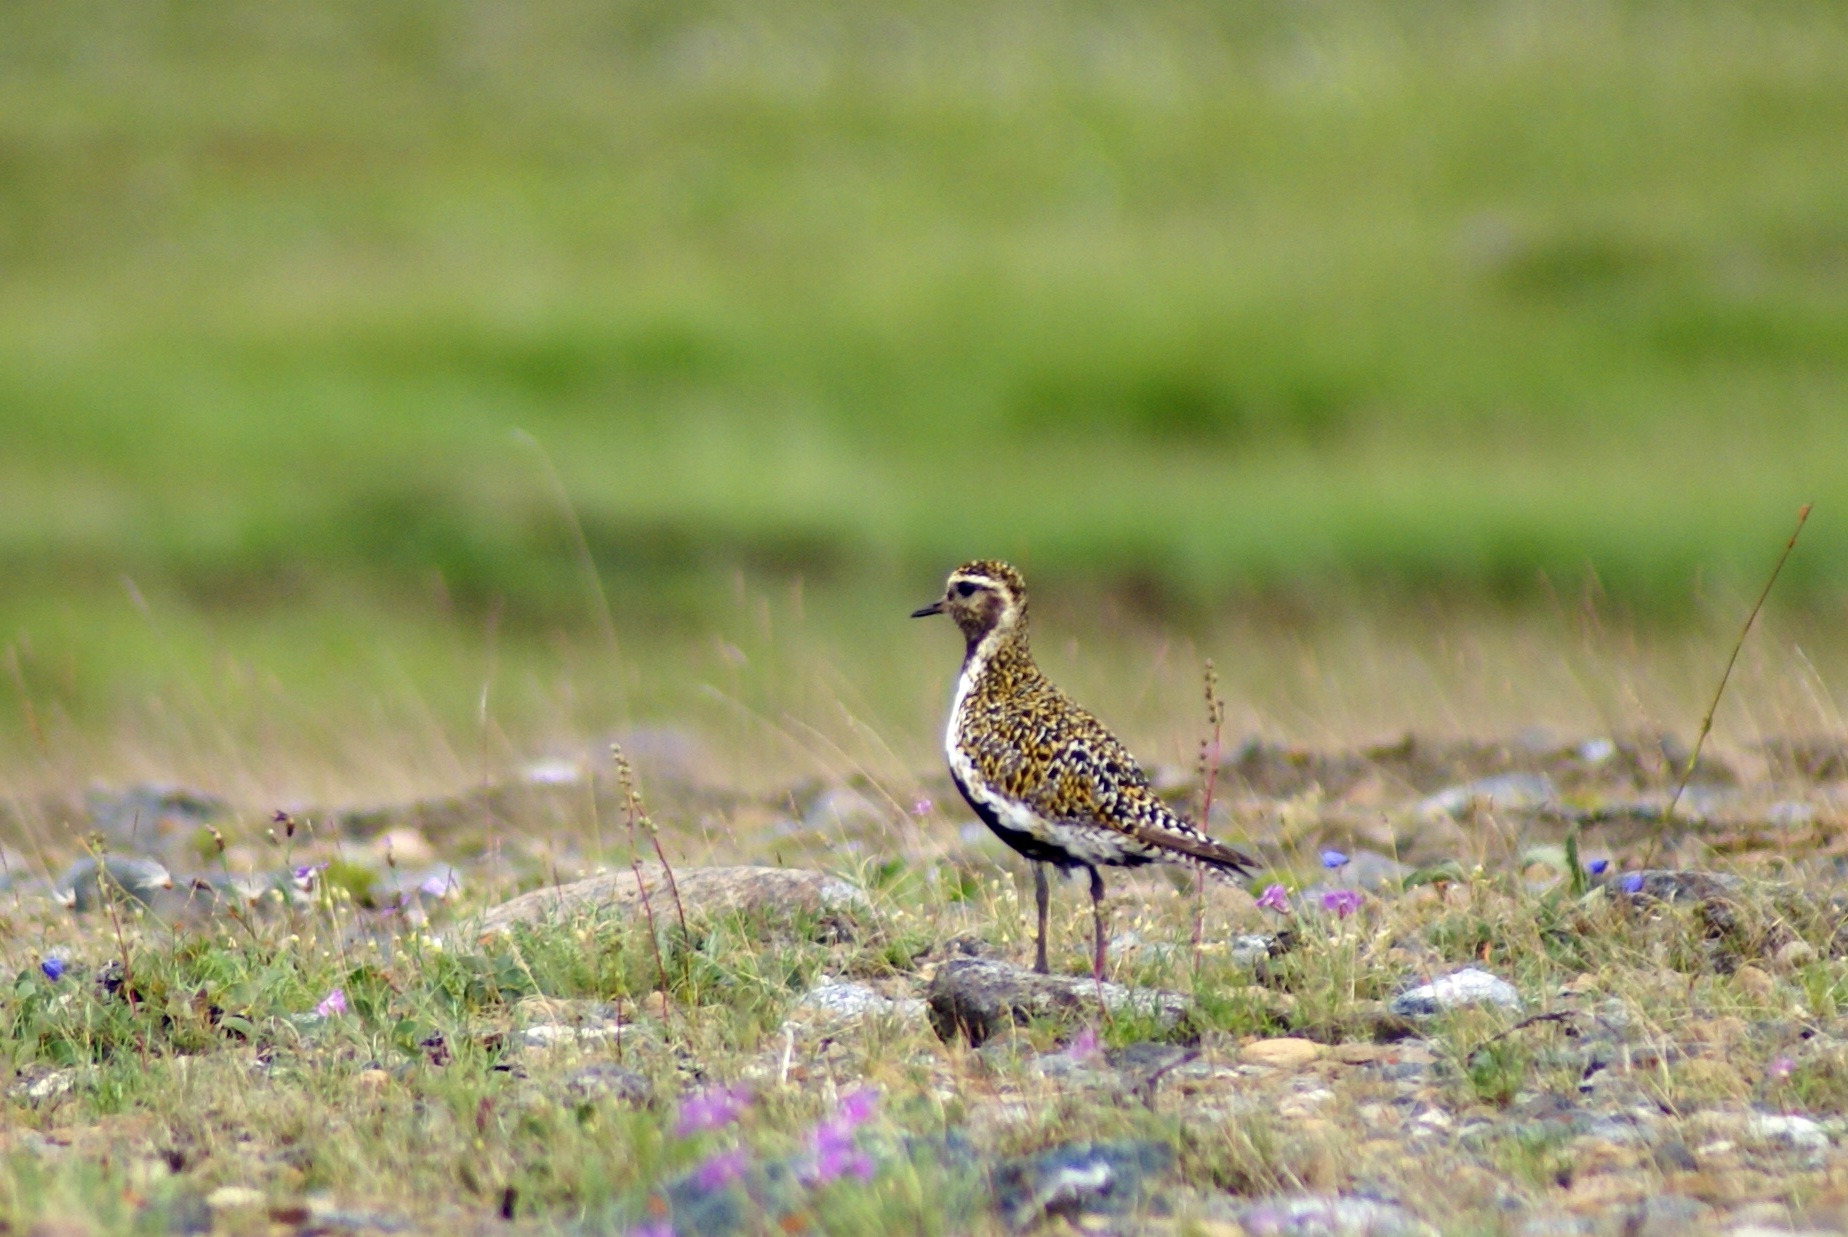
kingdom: Animalia
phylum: Chordata
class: Aves
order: Charadriiformes
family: Charadriidae
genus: Pluvialis
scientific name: Pluvialis apricaria
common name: European golden plover
